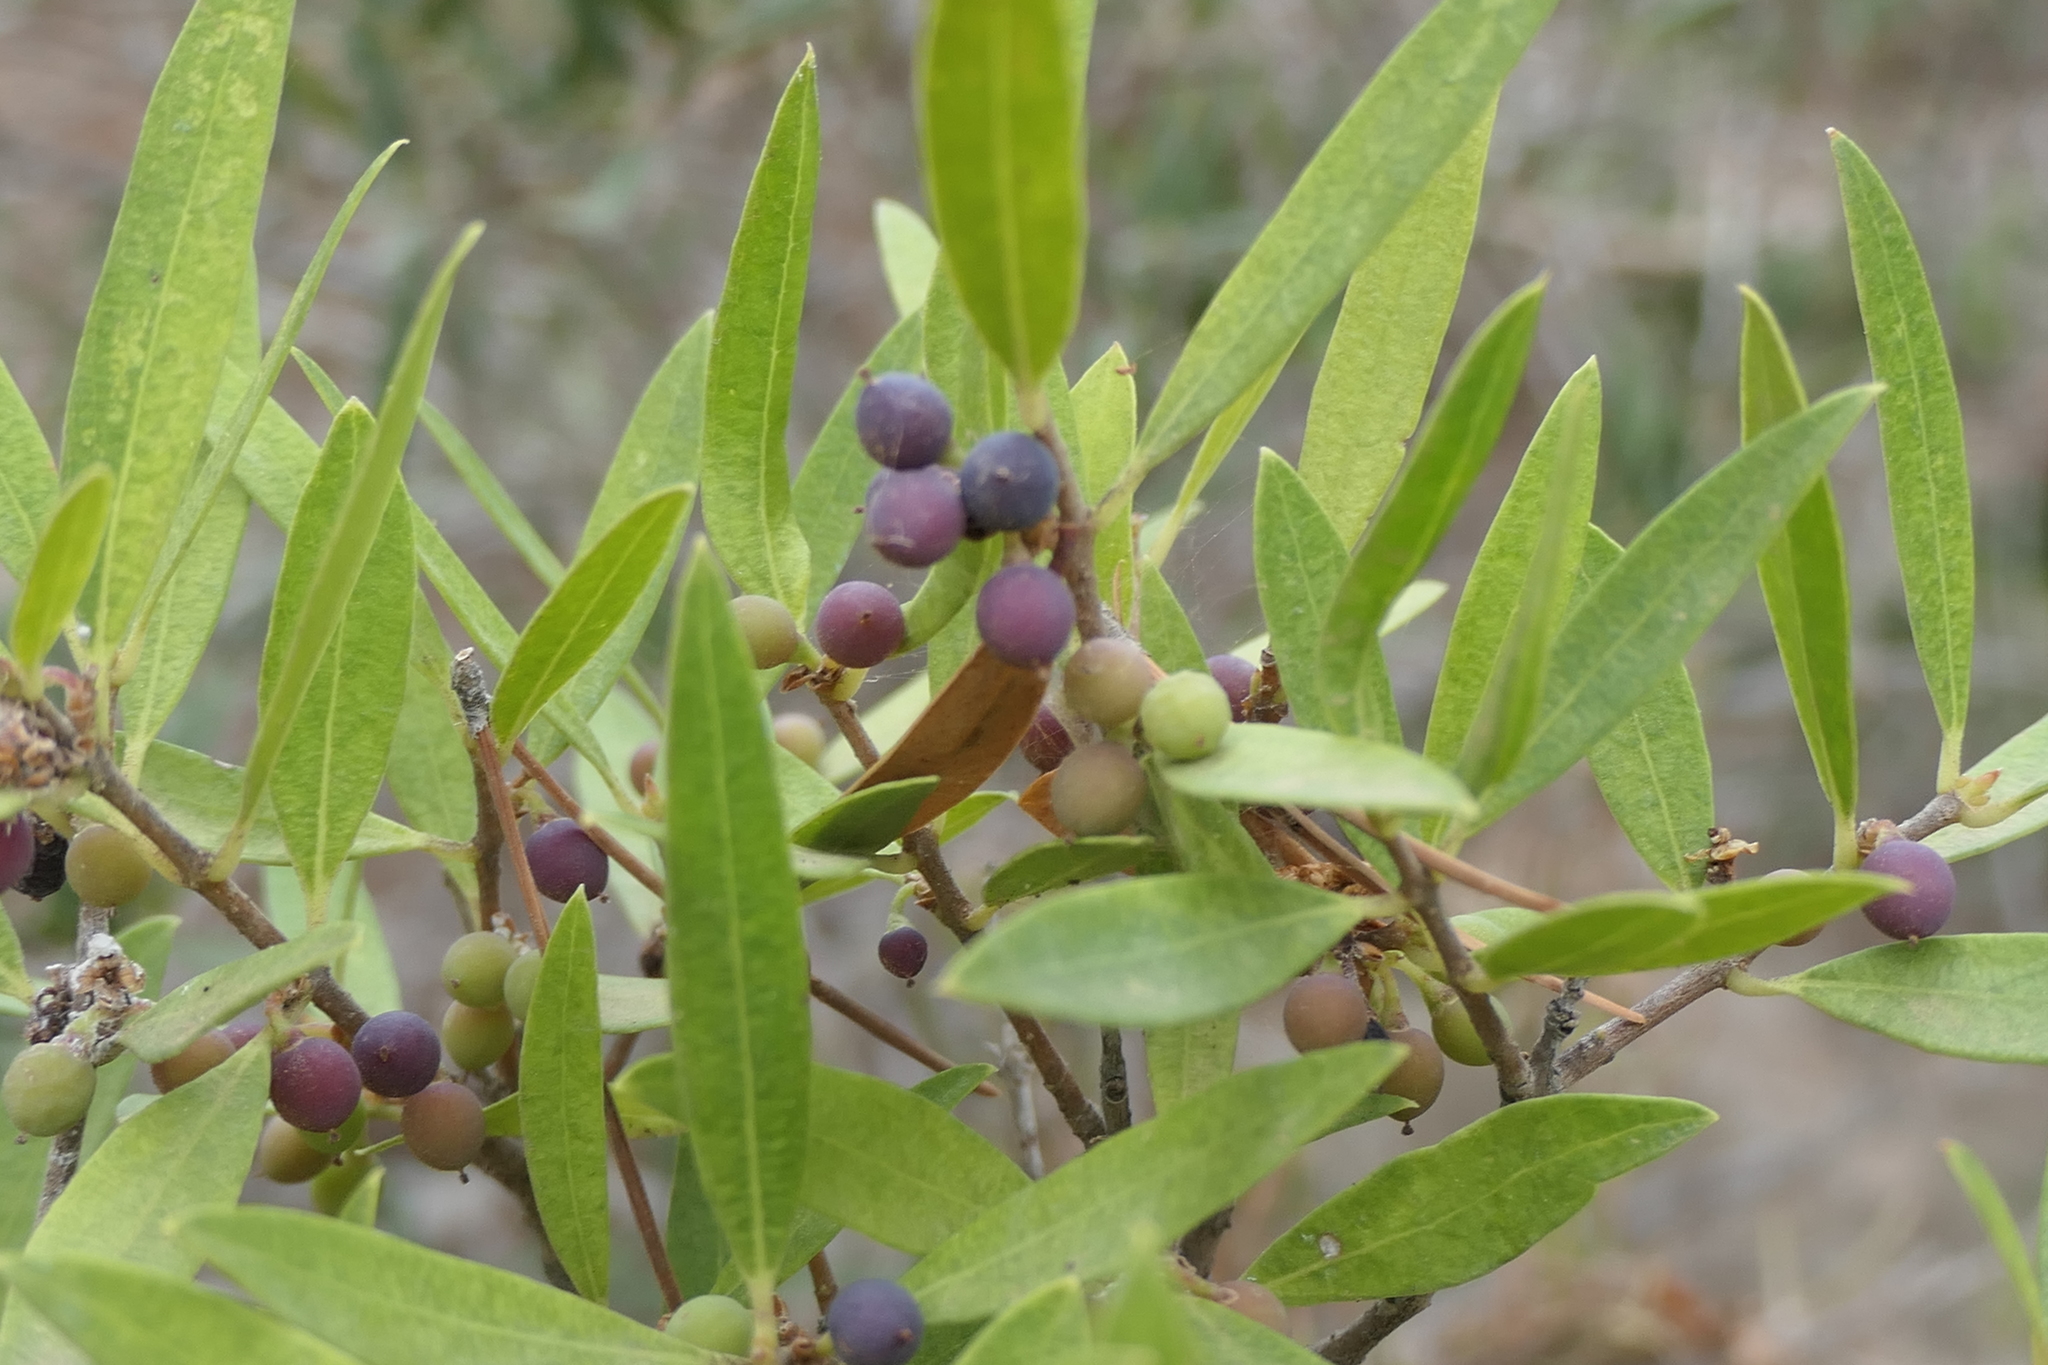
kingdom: Plantae
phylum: Tracheophyta
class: Magnoliopsida
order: Lamiales
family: Oleaceae
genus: Phillyrea
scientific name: Phillyrea angustifolia
